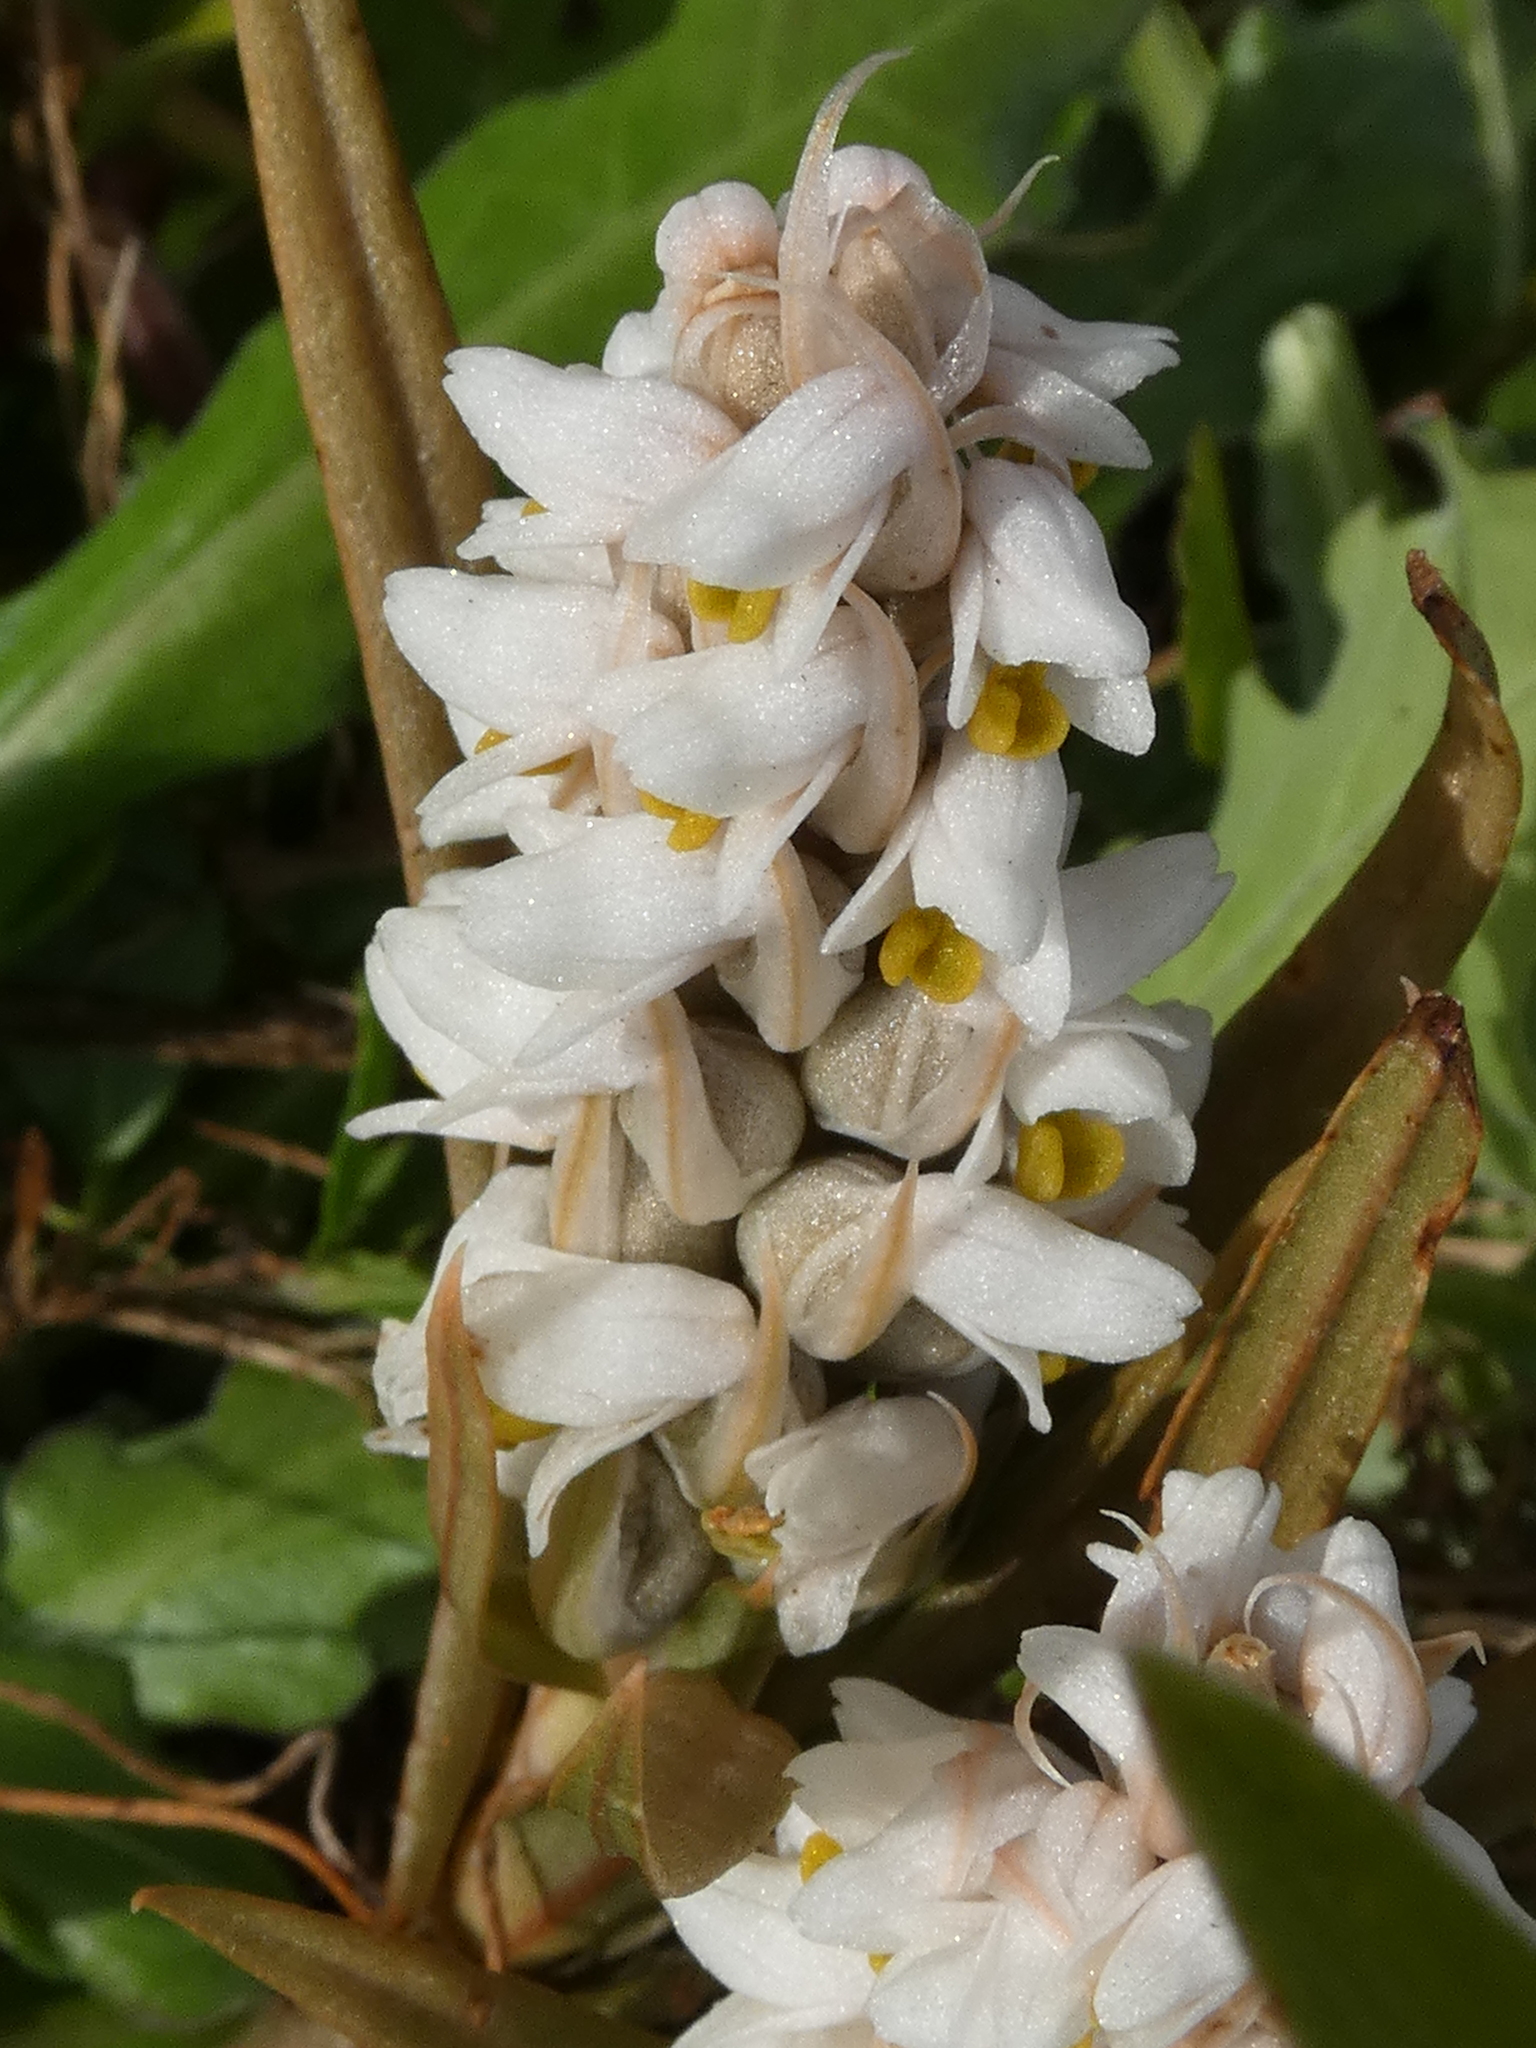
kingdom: Plantae
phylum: Tracheophyta
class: Liliopsida
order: Asparagales
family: Orchidaceae
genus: Zeuxine
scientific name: Zeuxine strateumatica
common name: Soldier's orchid
